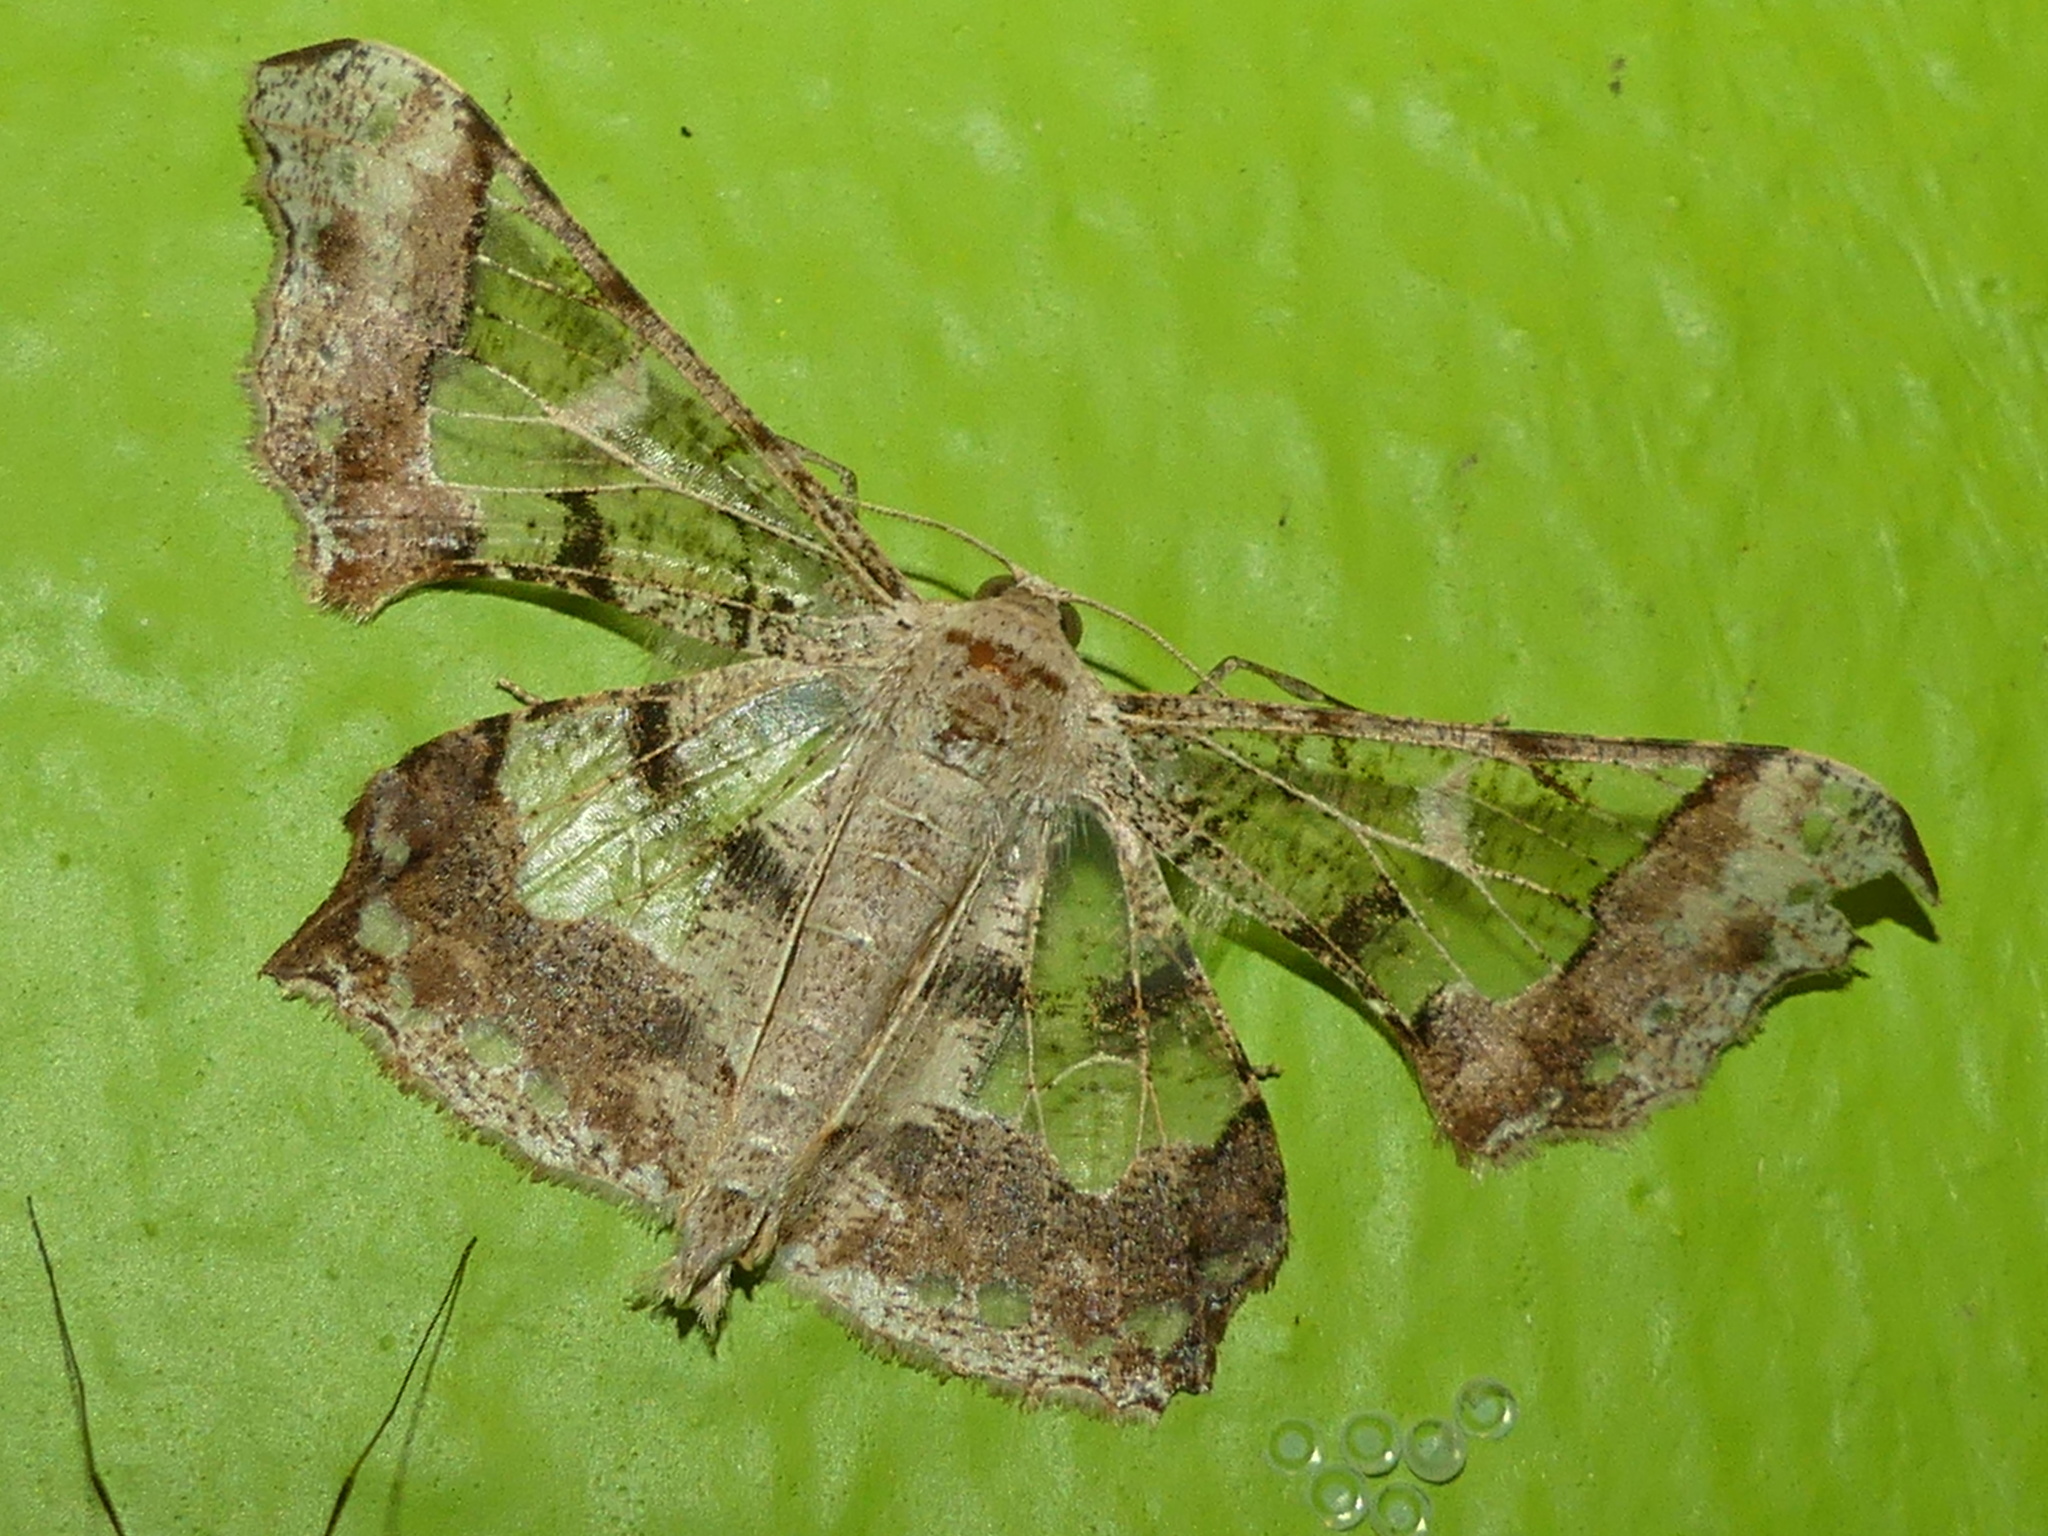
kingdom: Animalia
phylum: Arthropoda
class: Insecta
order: Lepidoptera
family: Geometridae
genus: Krananda
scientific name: Krananda semihyalina
